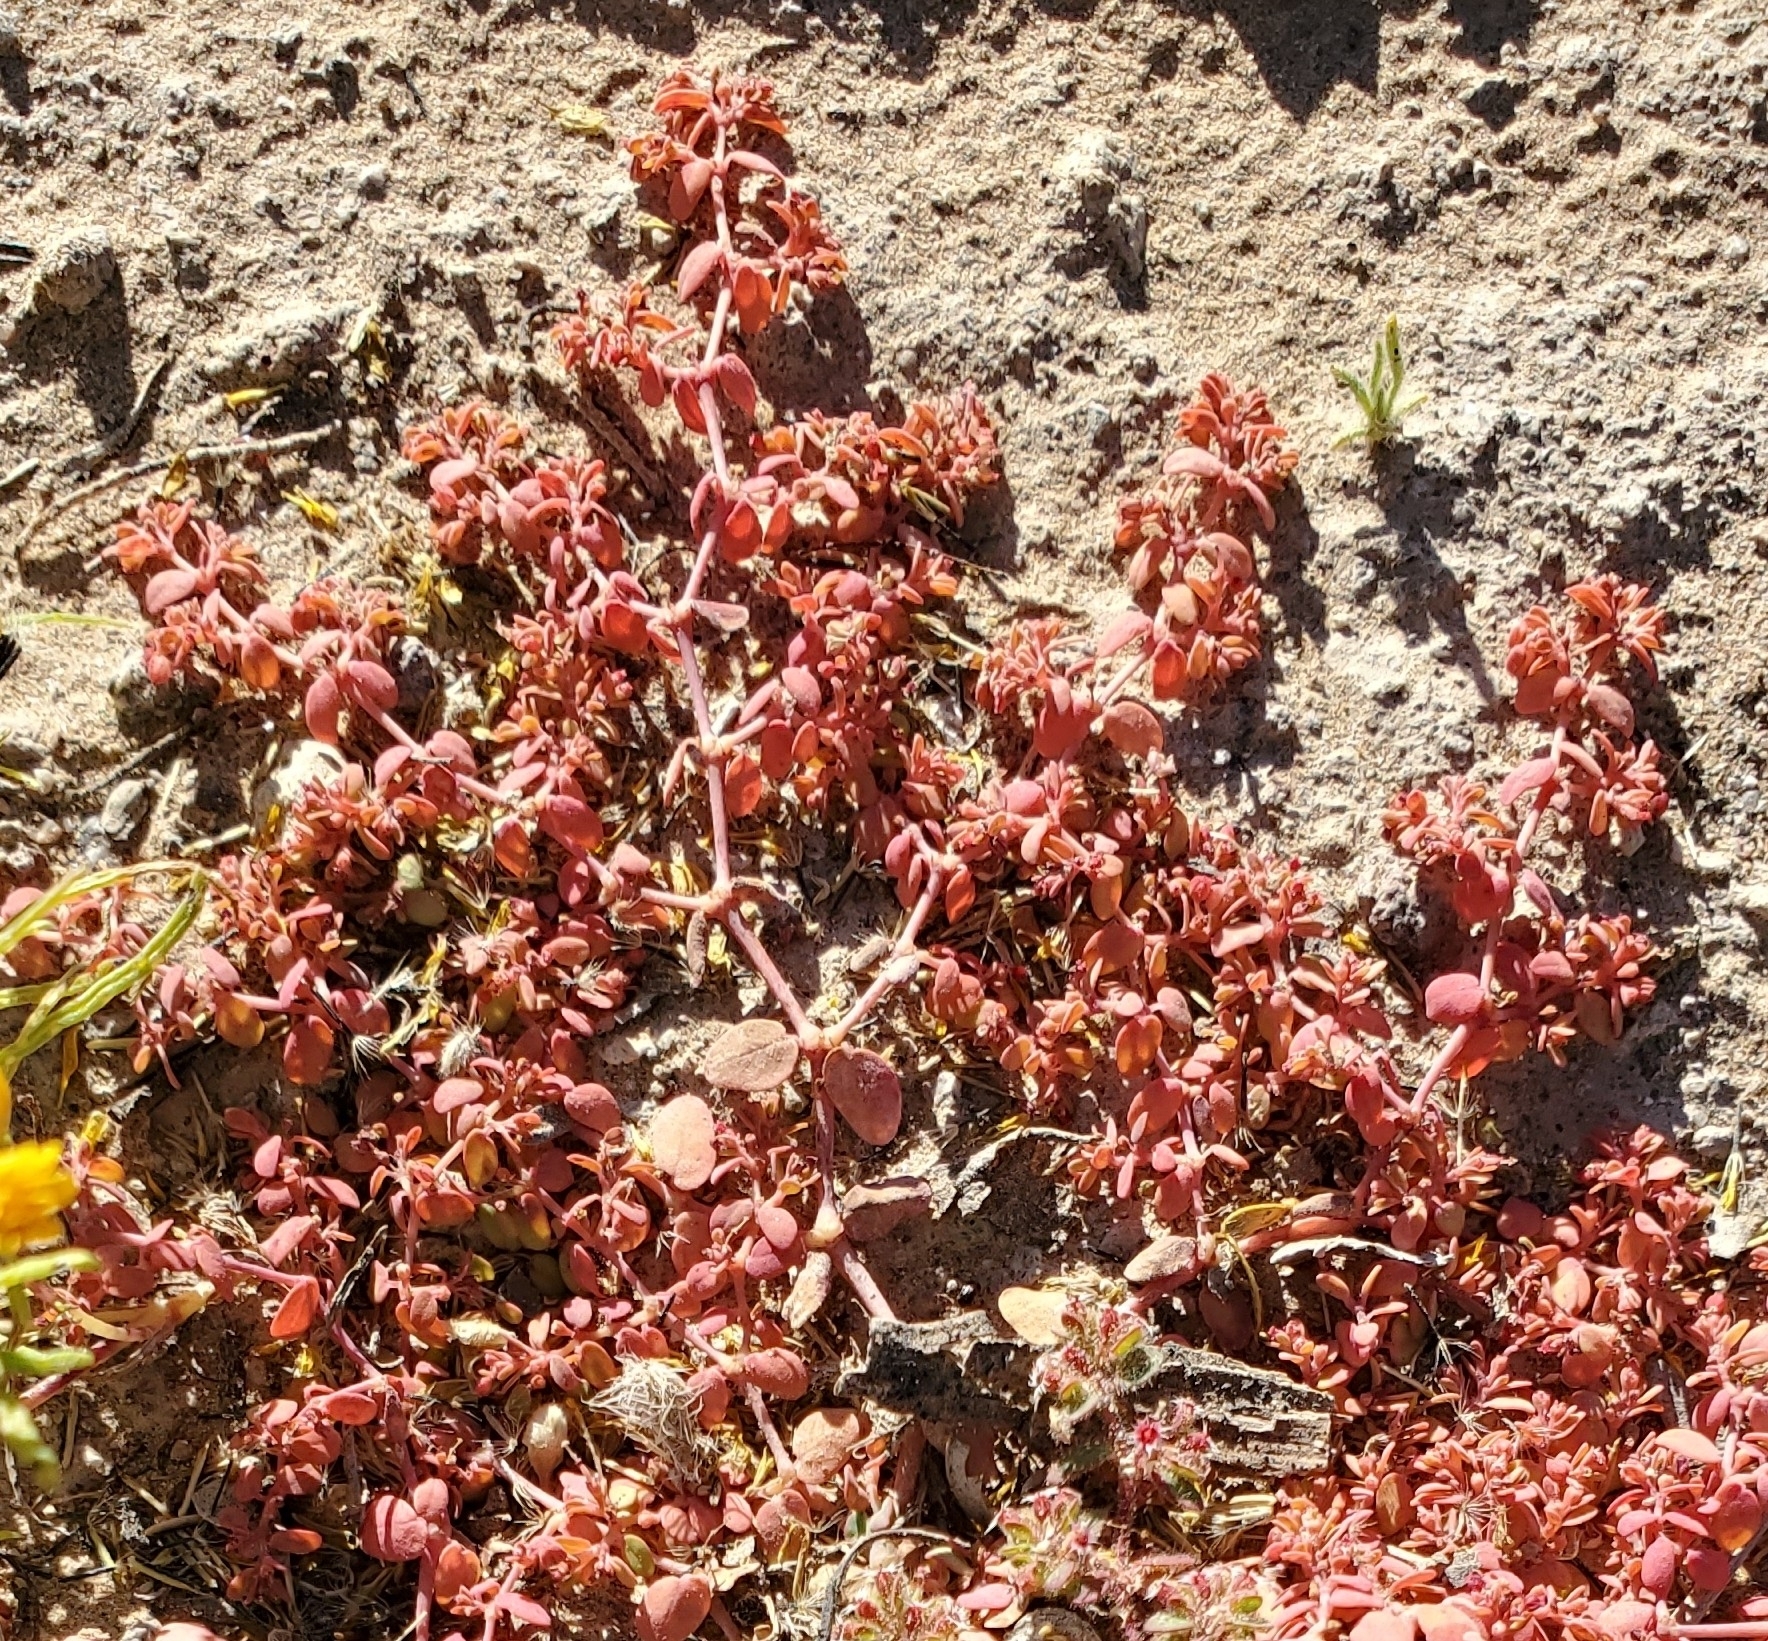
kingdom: Plantae
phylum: Tracheophyta
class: Magnoliopsida
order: Malpighiales
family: Euphorbiaceae
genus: Euphorbia
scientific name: Euphorbia micromera
